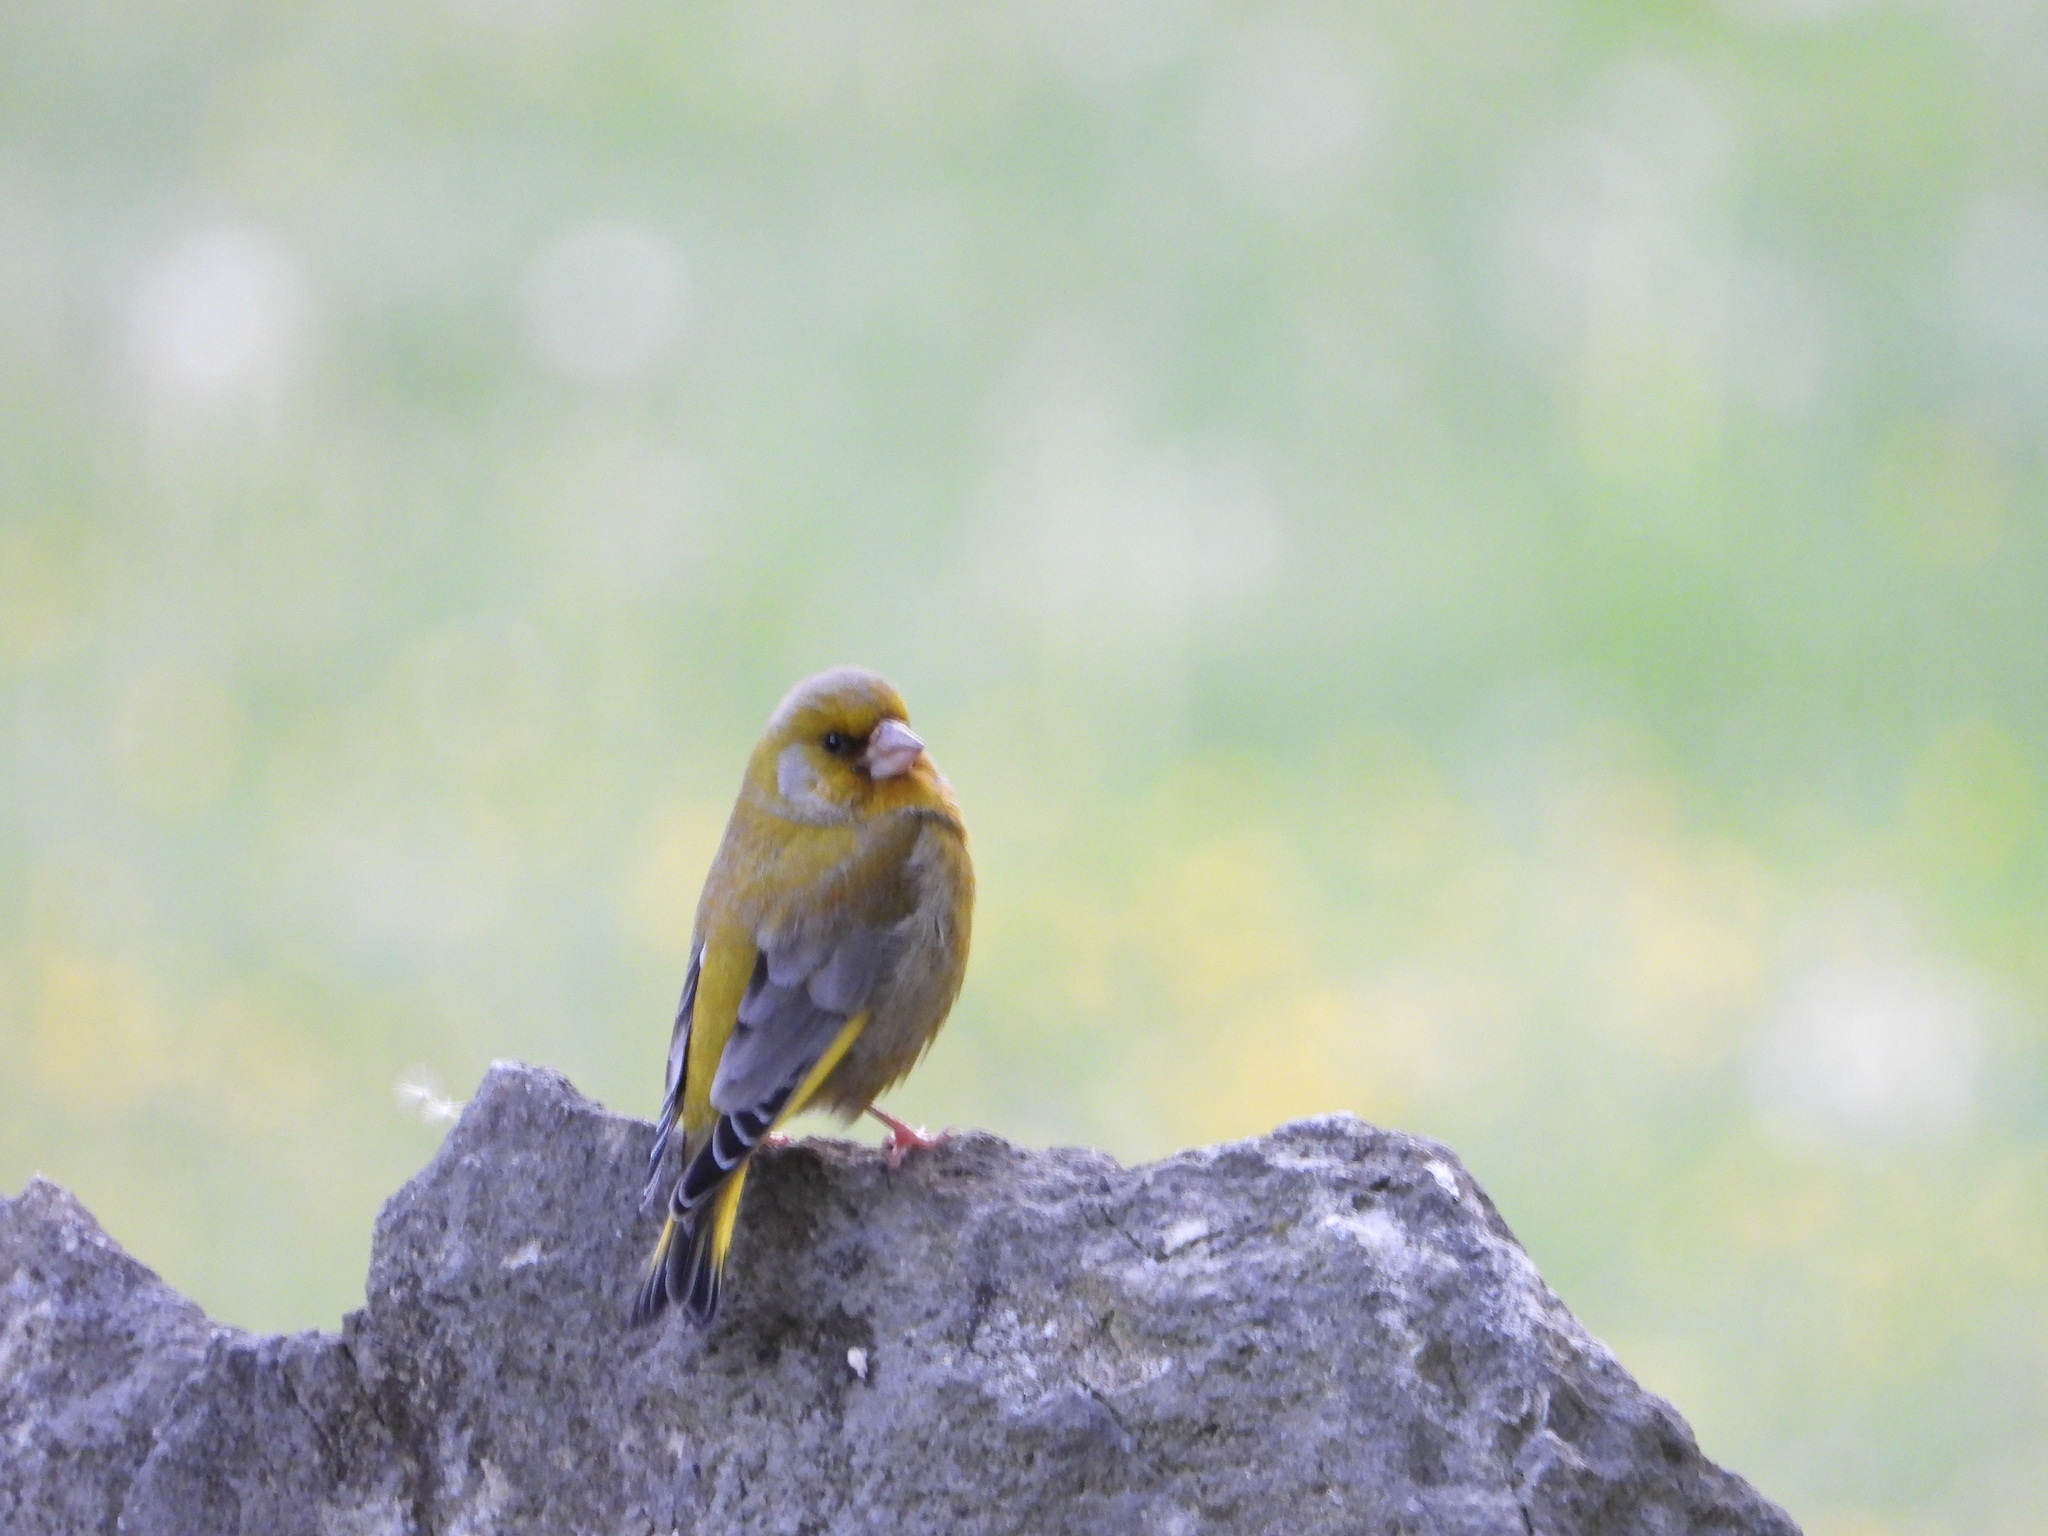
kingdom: Plantae
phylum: Tracheophyta
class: Liliopsida
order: Poales
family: Poaceae
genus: Chloris
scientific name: Chloris chloris
